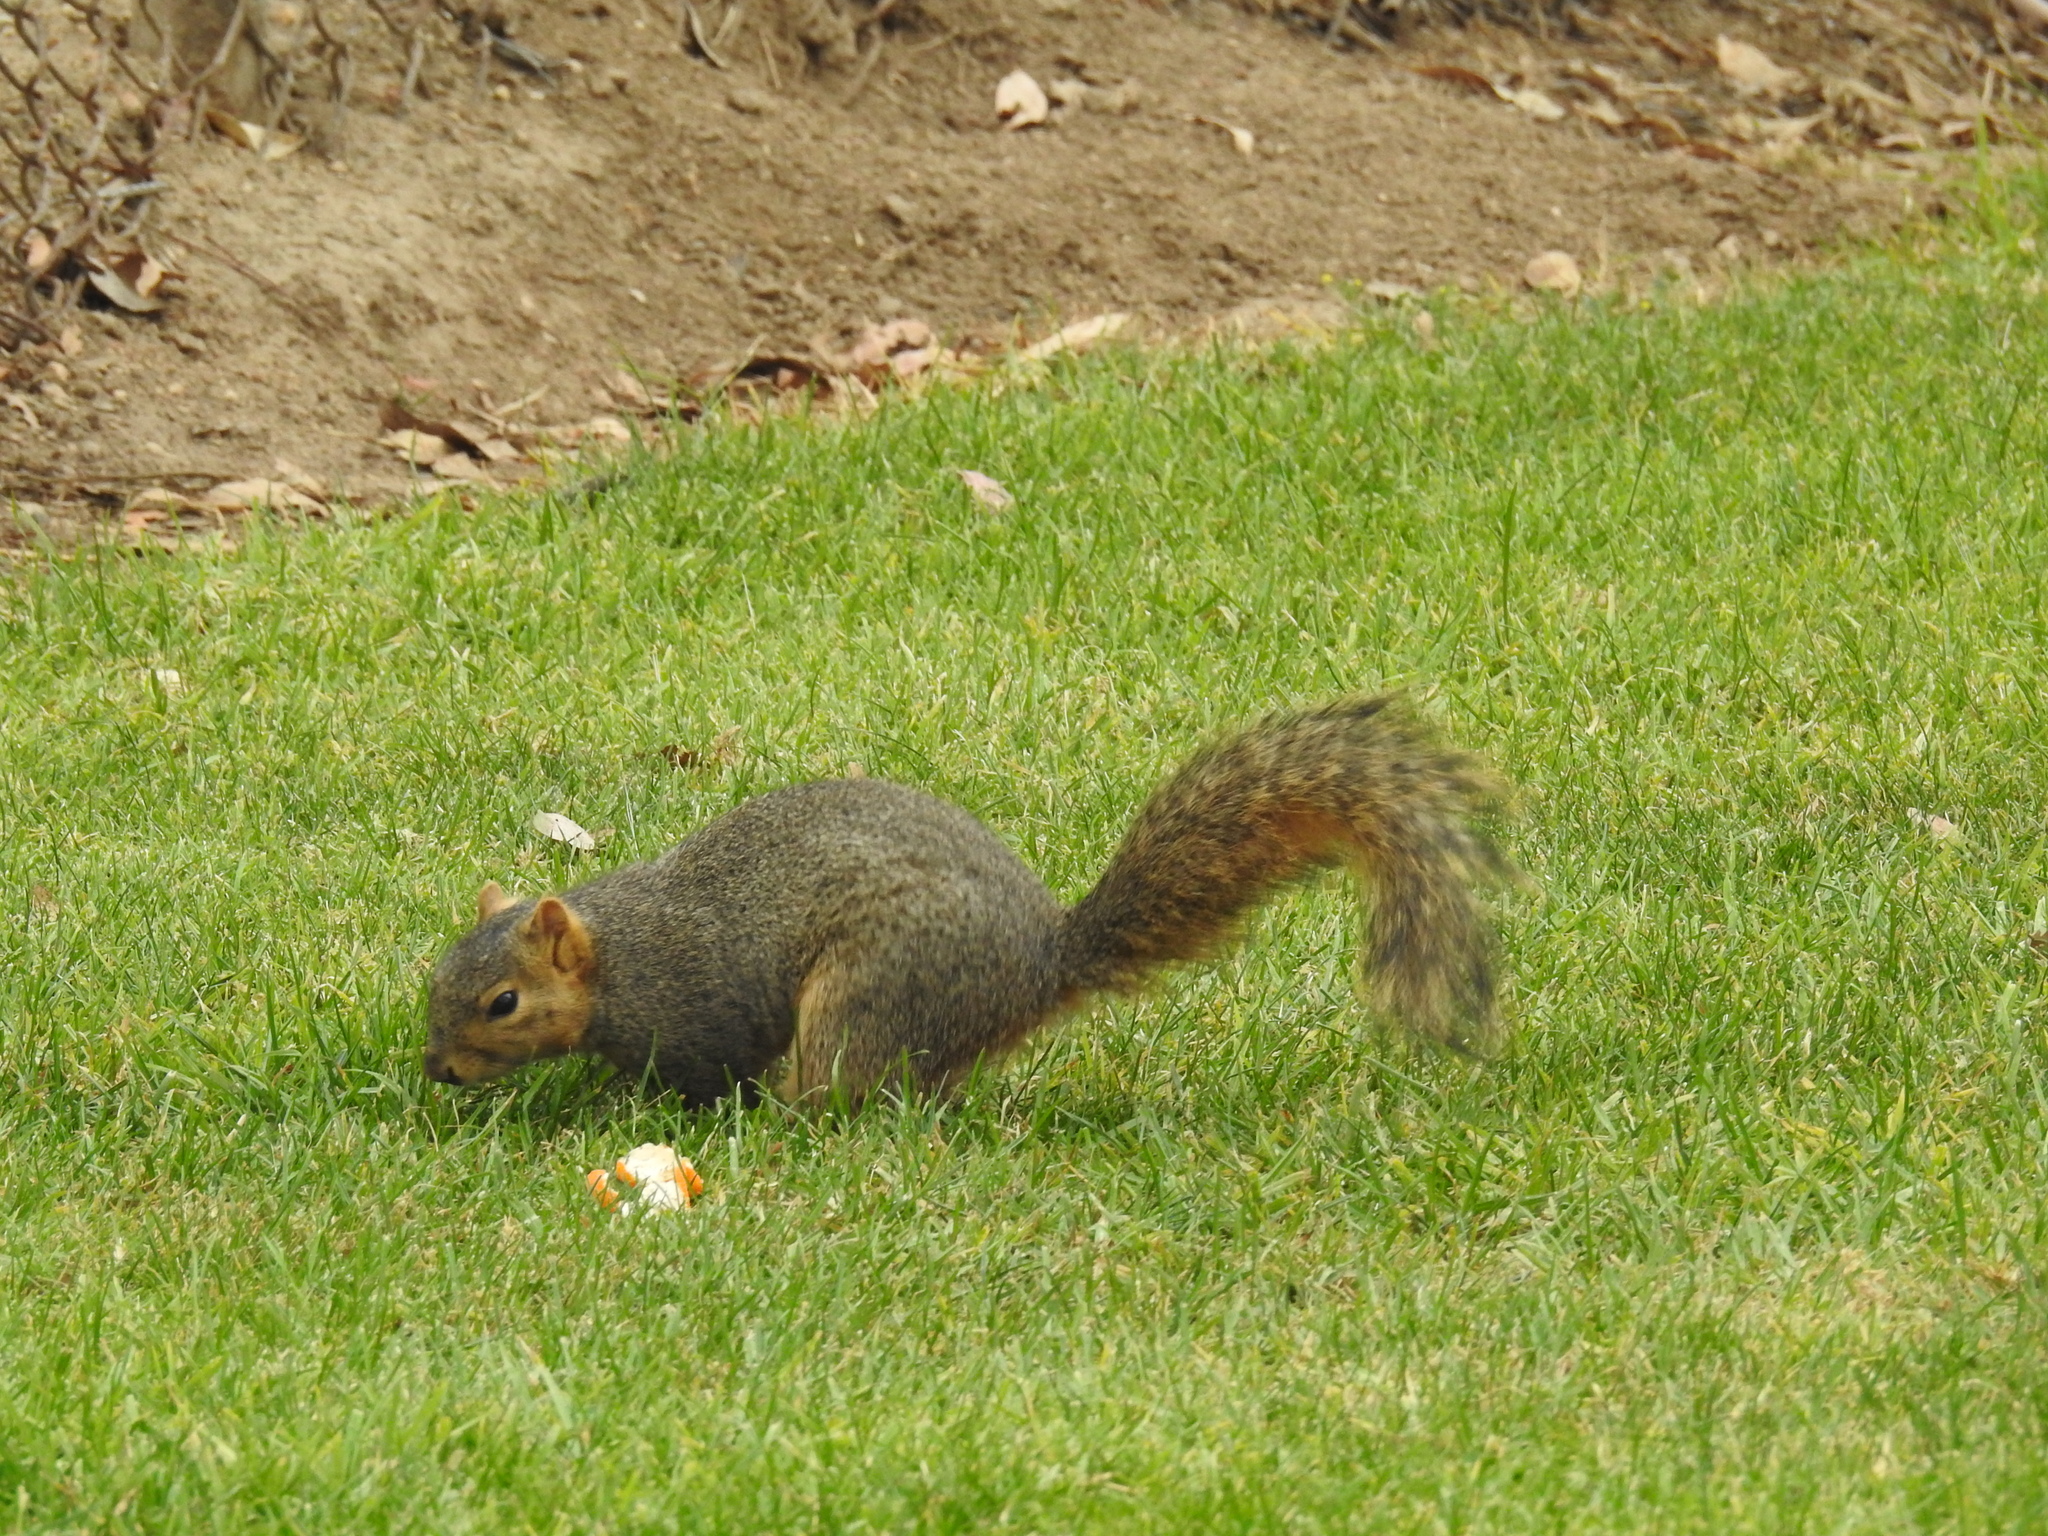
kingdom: Animalia
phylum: Chordata
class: Mammalia
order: Rodentia
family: Sciuridae
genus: Sciurus
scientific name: Sciurus niger
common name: Fox squirrel
